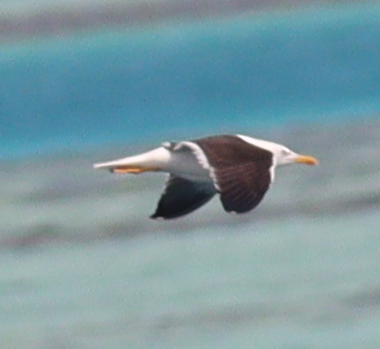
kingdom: Animalia
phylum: Chordata
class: Aves
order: Charadriiformes
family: Laridae
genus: Larus
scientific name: Larus fuscus
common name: Lesser black-backed gull
